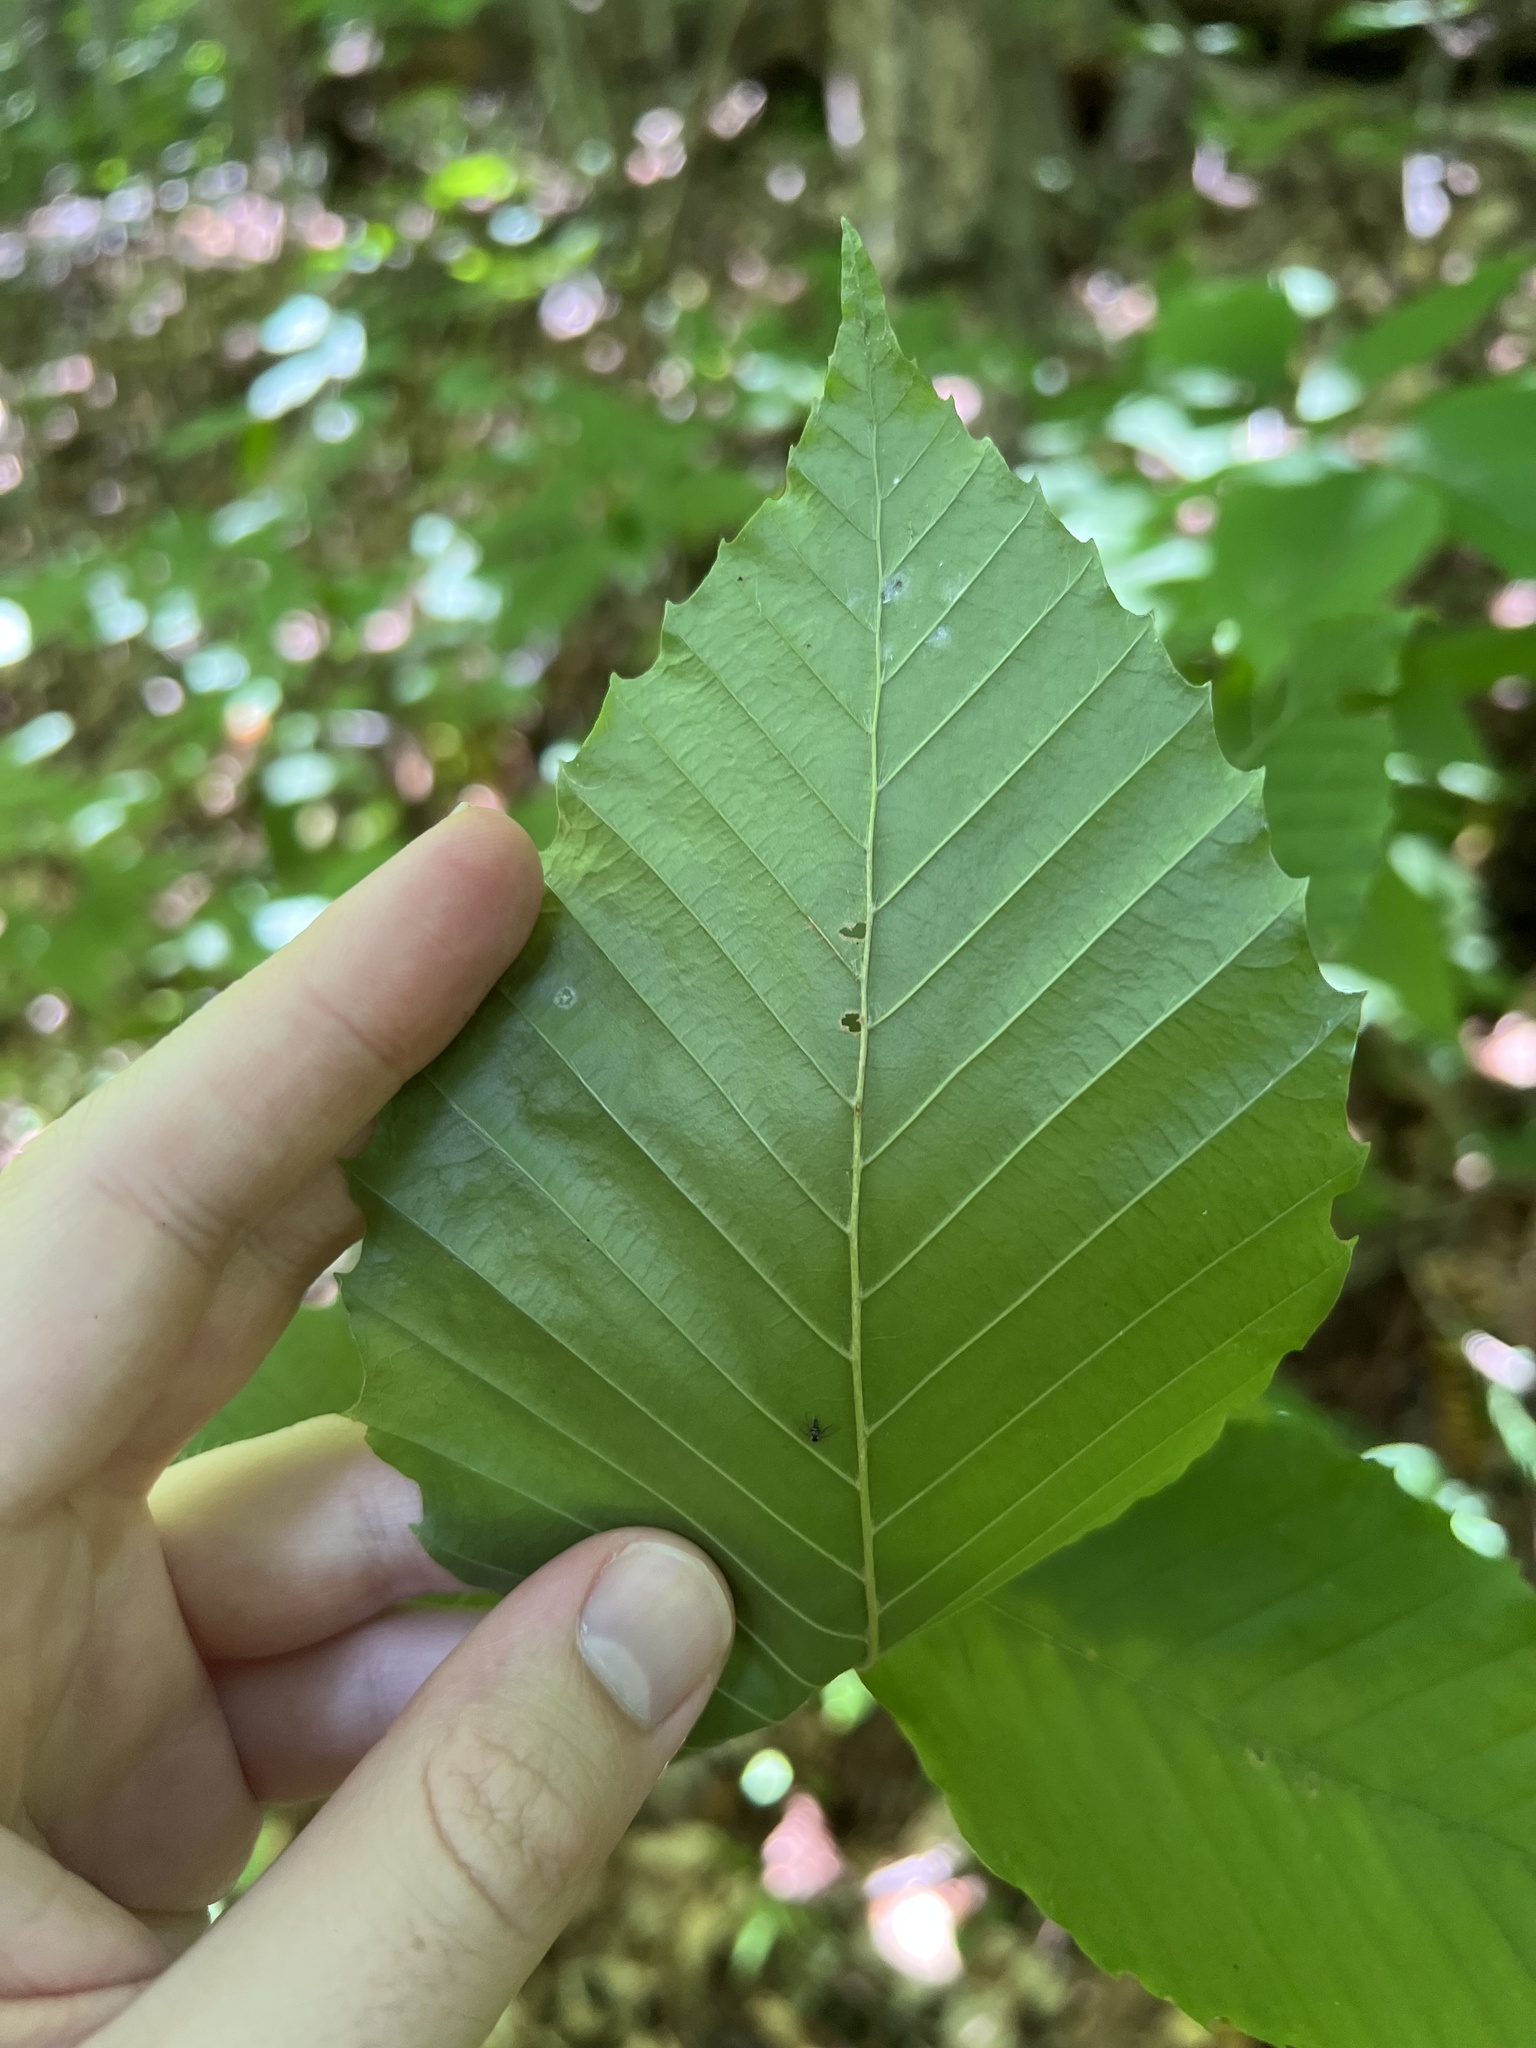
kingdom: Plantae
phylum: Tracheophyta
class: Magnoliopsida
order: Fagales
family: Fagaceae
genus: Fagus
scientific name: Fagus grandifolia
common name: American beech
